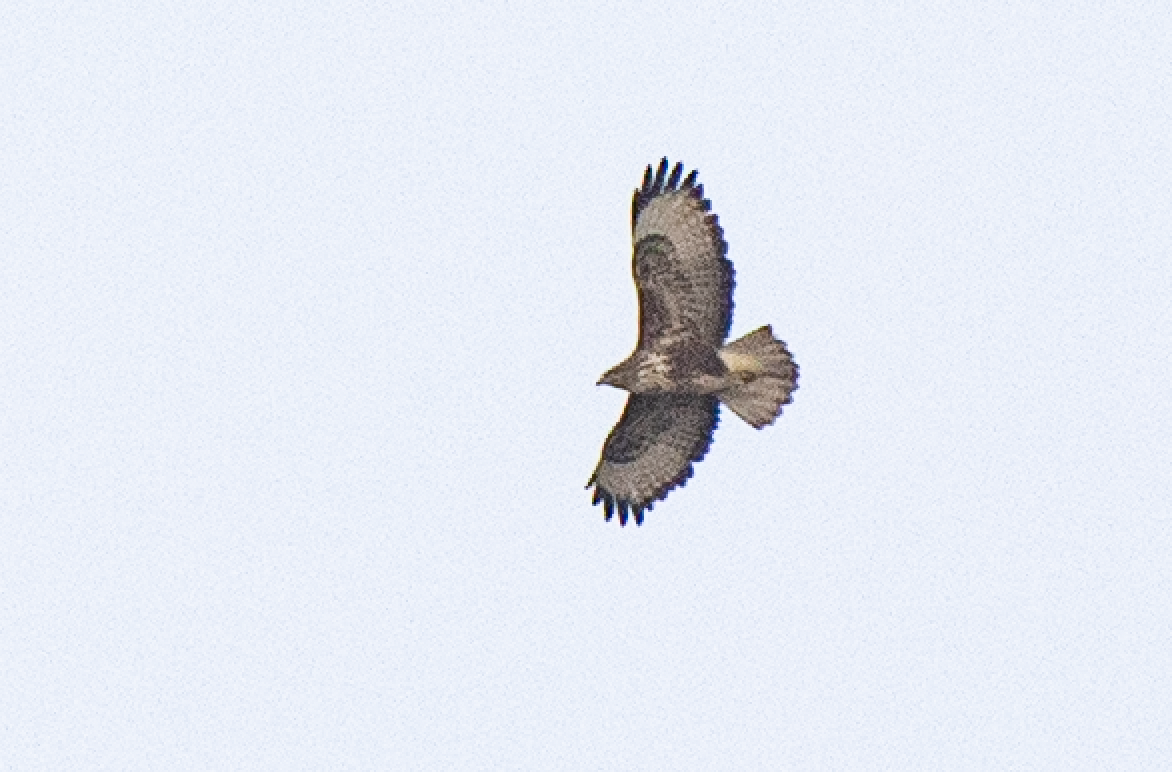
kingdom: Animalia
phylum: Chordata
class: Aves
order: Accipitriformes
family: Accipitridae
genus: Buteo
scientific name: Buteo buteo
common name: Common buzzard
